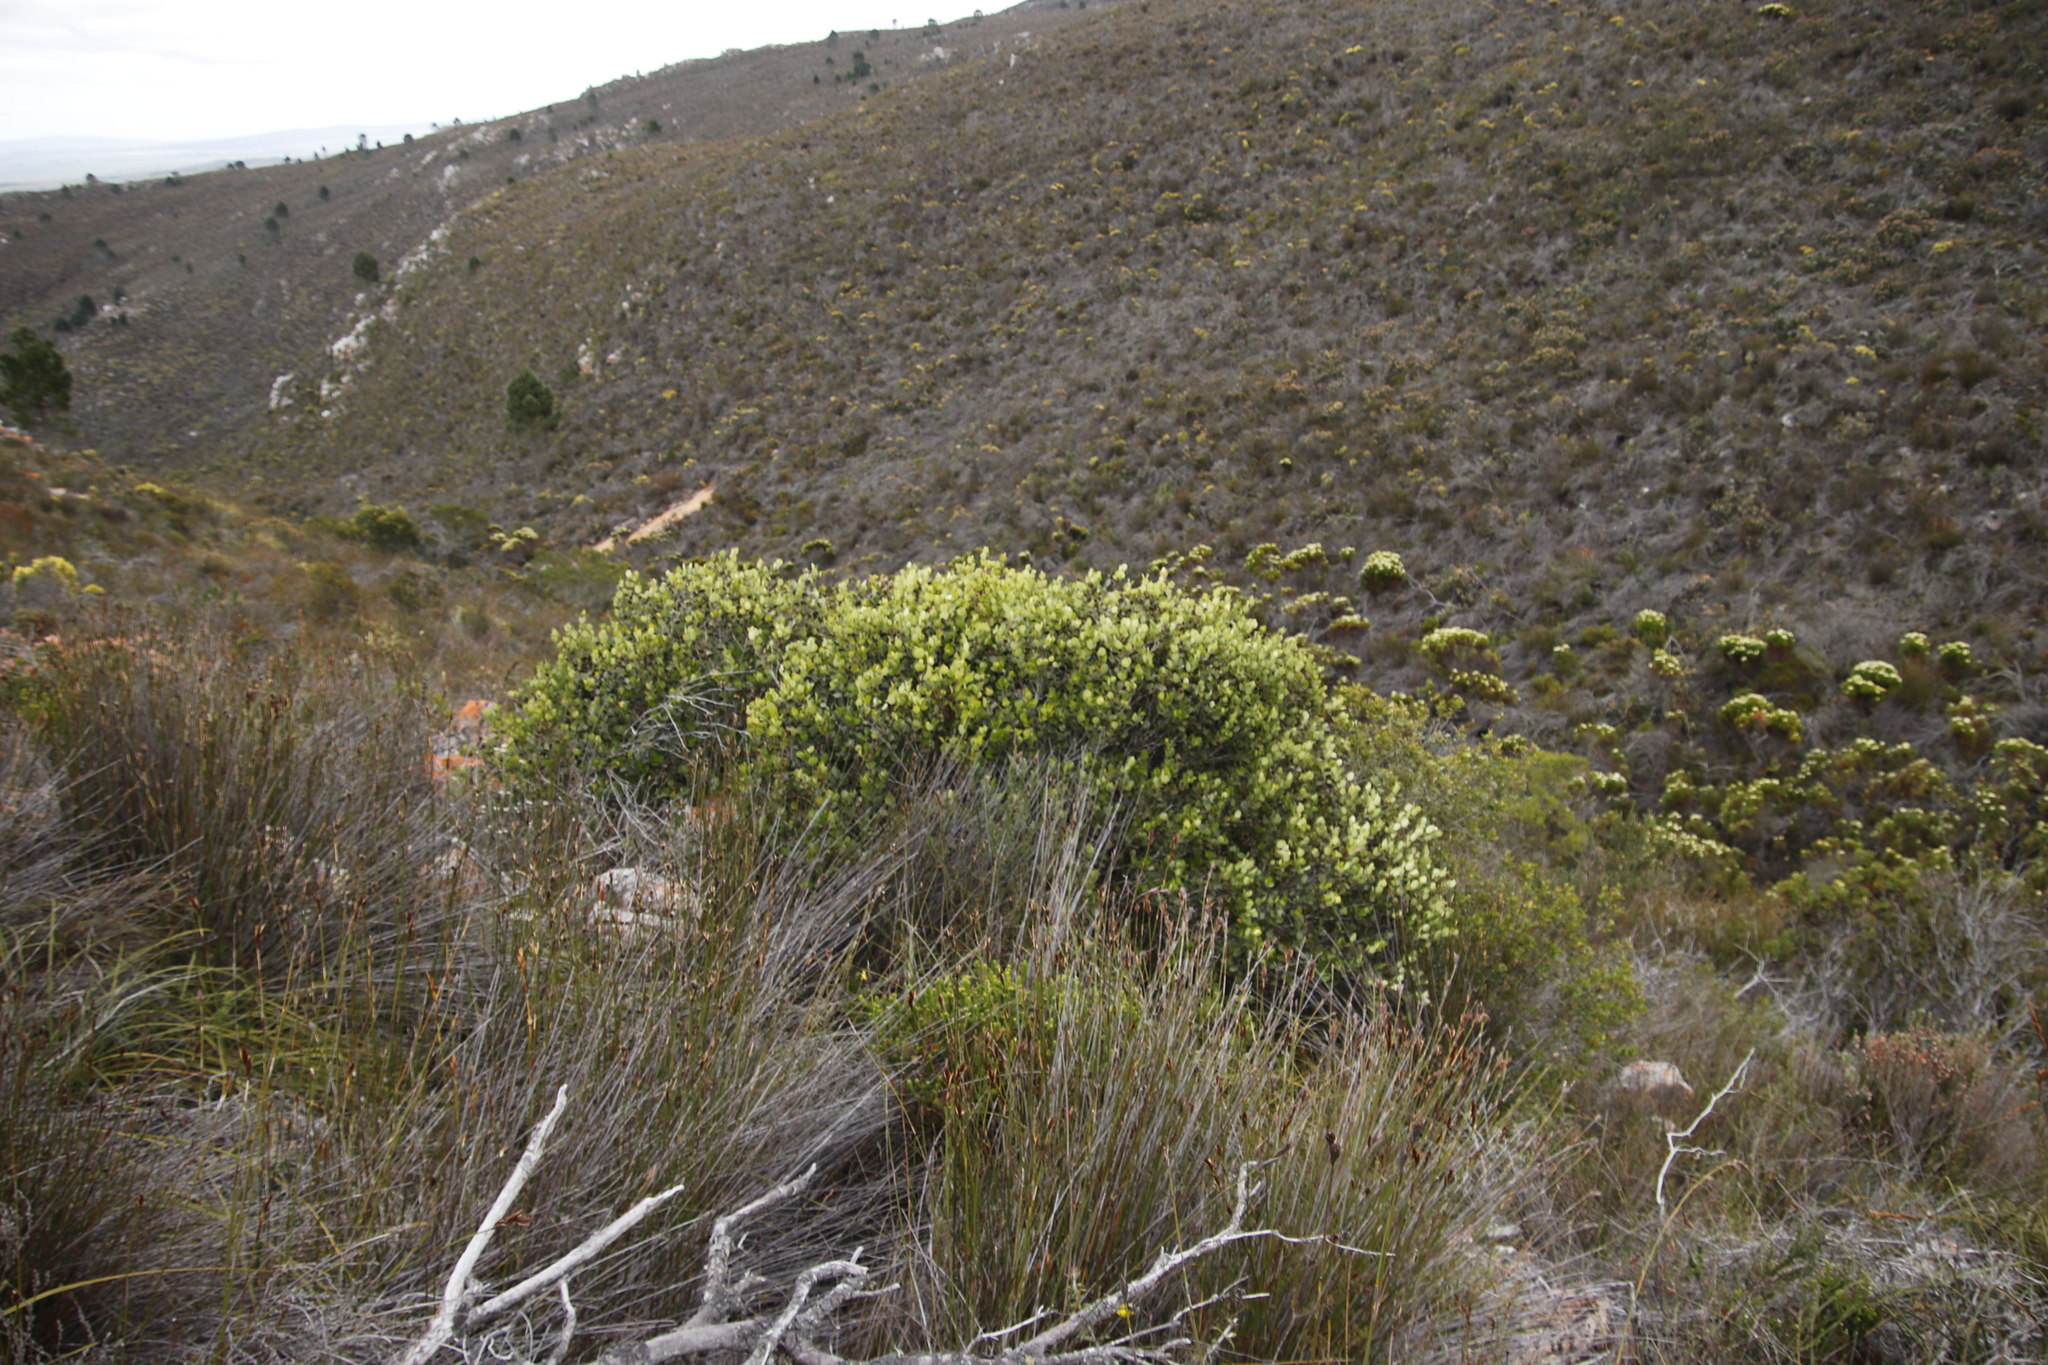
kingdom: Plantae
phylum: Tracheophyta
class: Magnoliopsida
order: Celastrales
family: Celastraceae
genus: Cassine
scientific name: Cassine peragua
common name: Cape saffron
